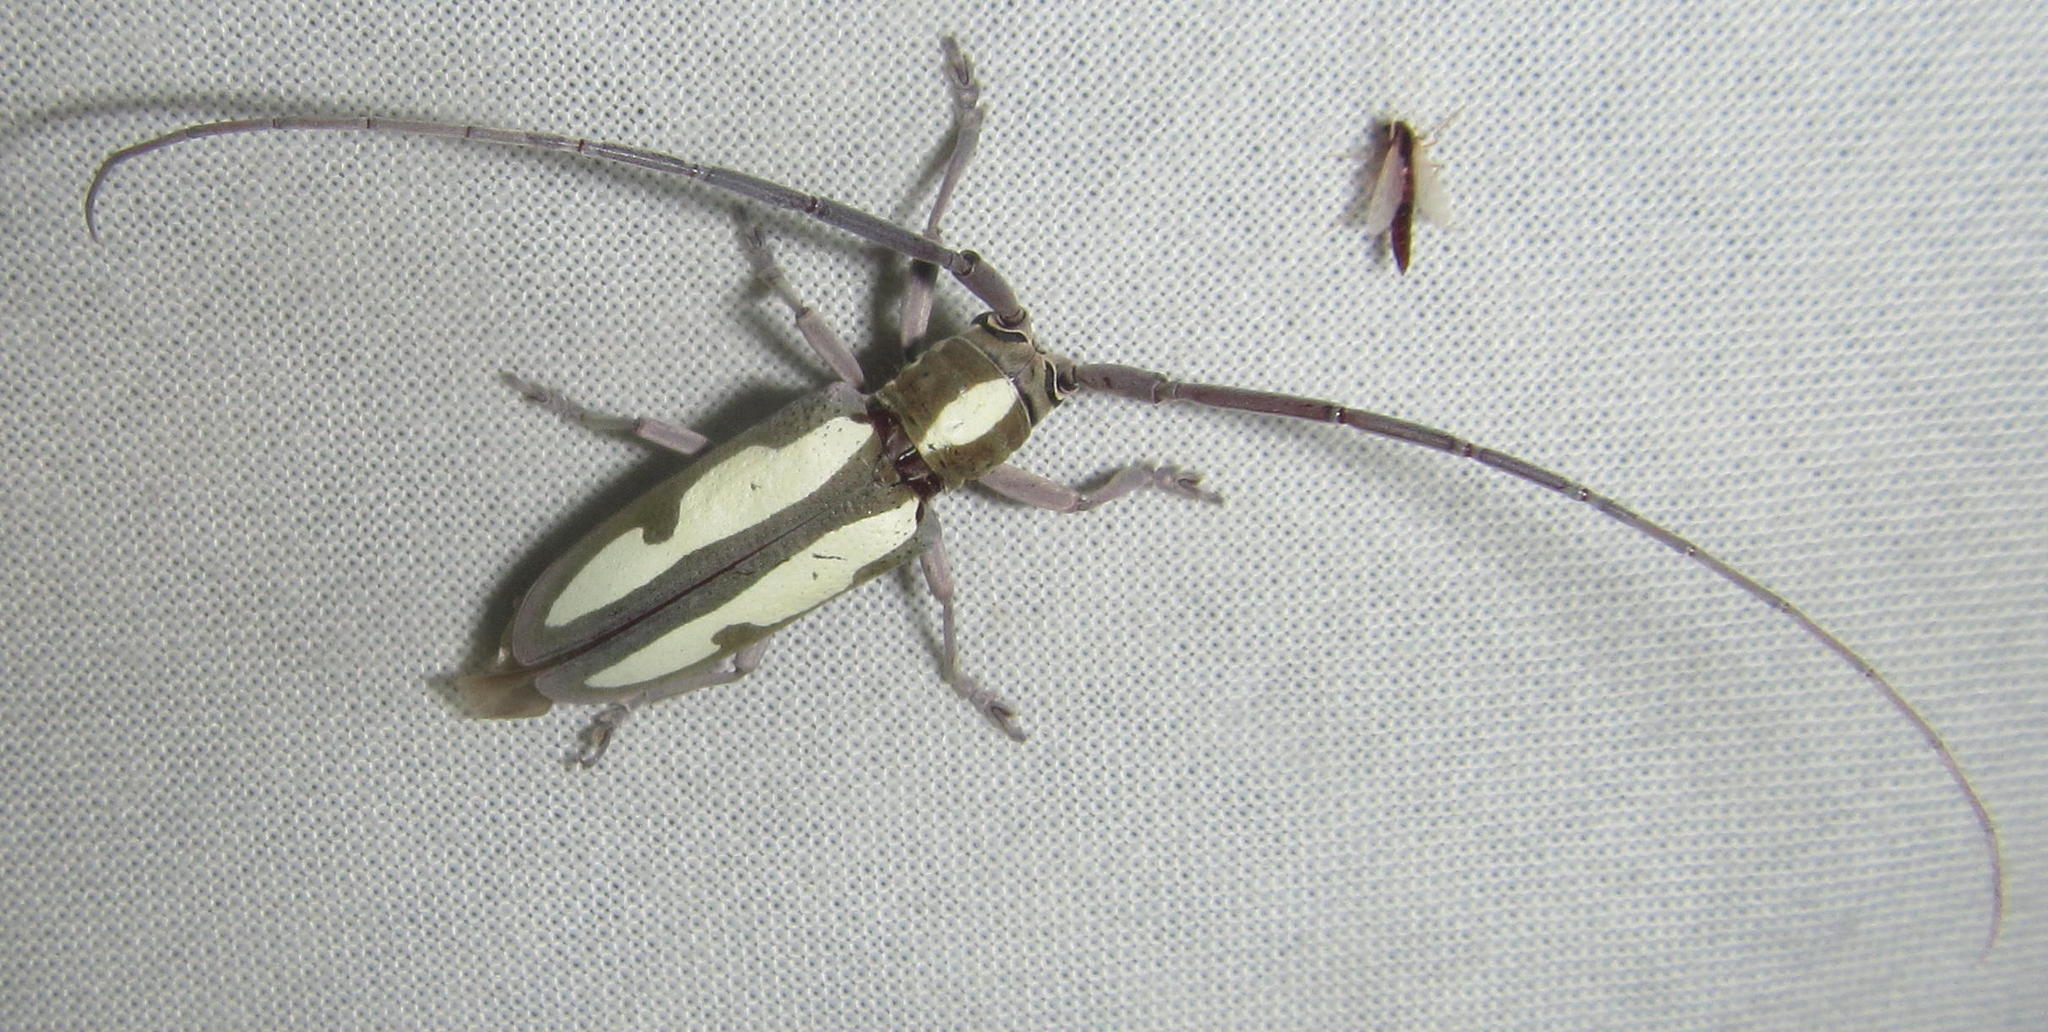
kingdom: Animalia
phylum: Arthropoda
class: Insecta
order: Coleoptera
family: Cerambycidae
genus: Prosopocera
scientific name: Prosopocera paykullii
